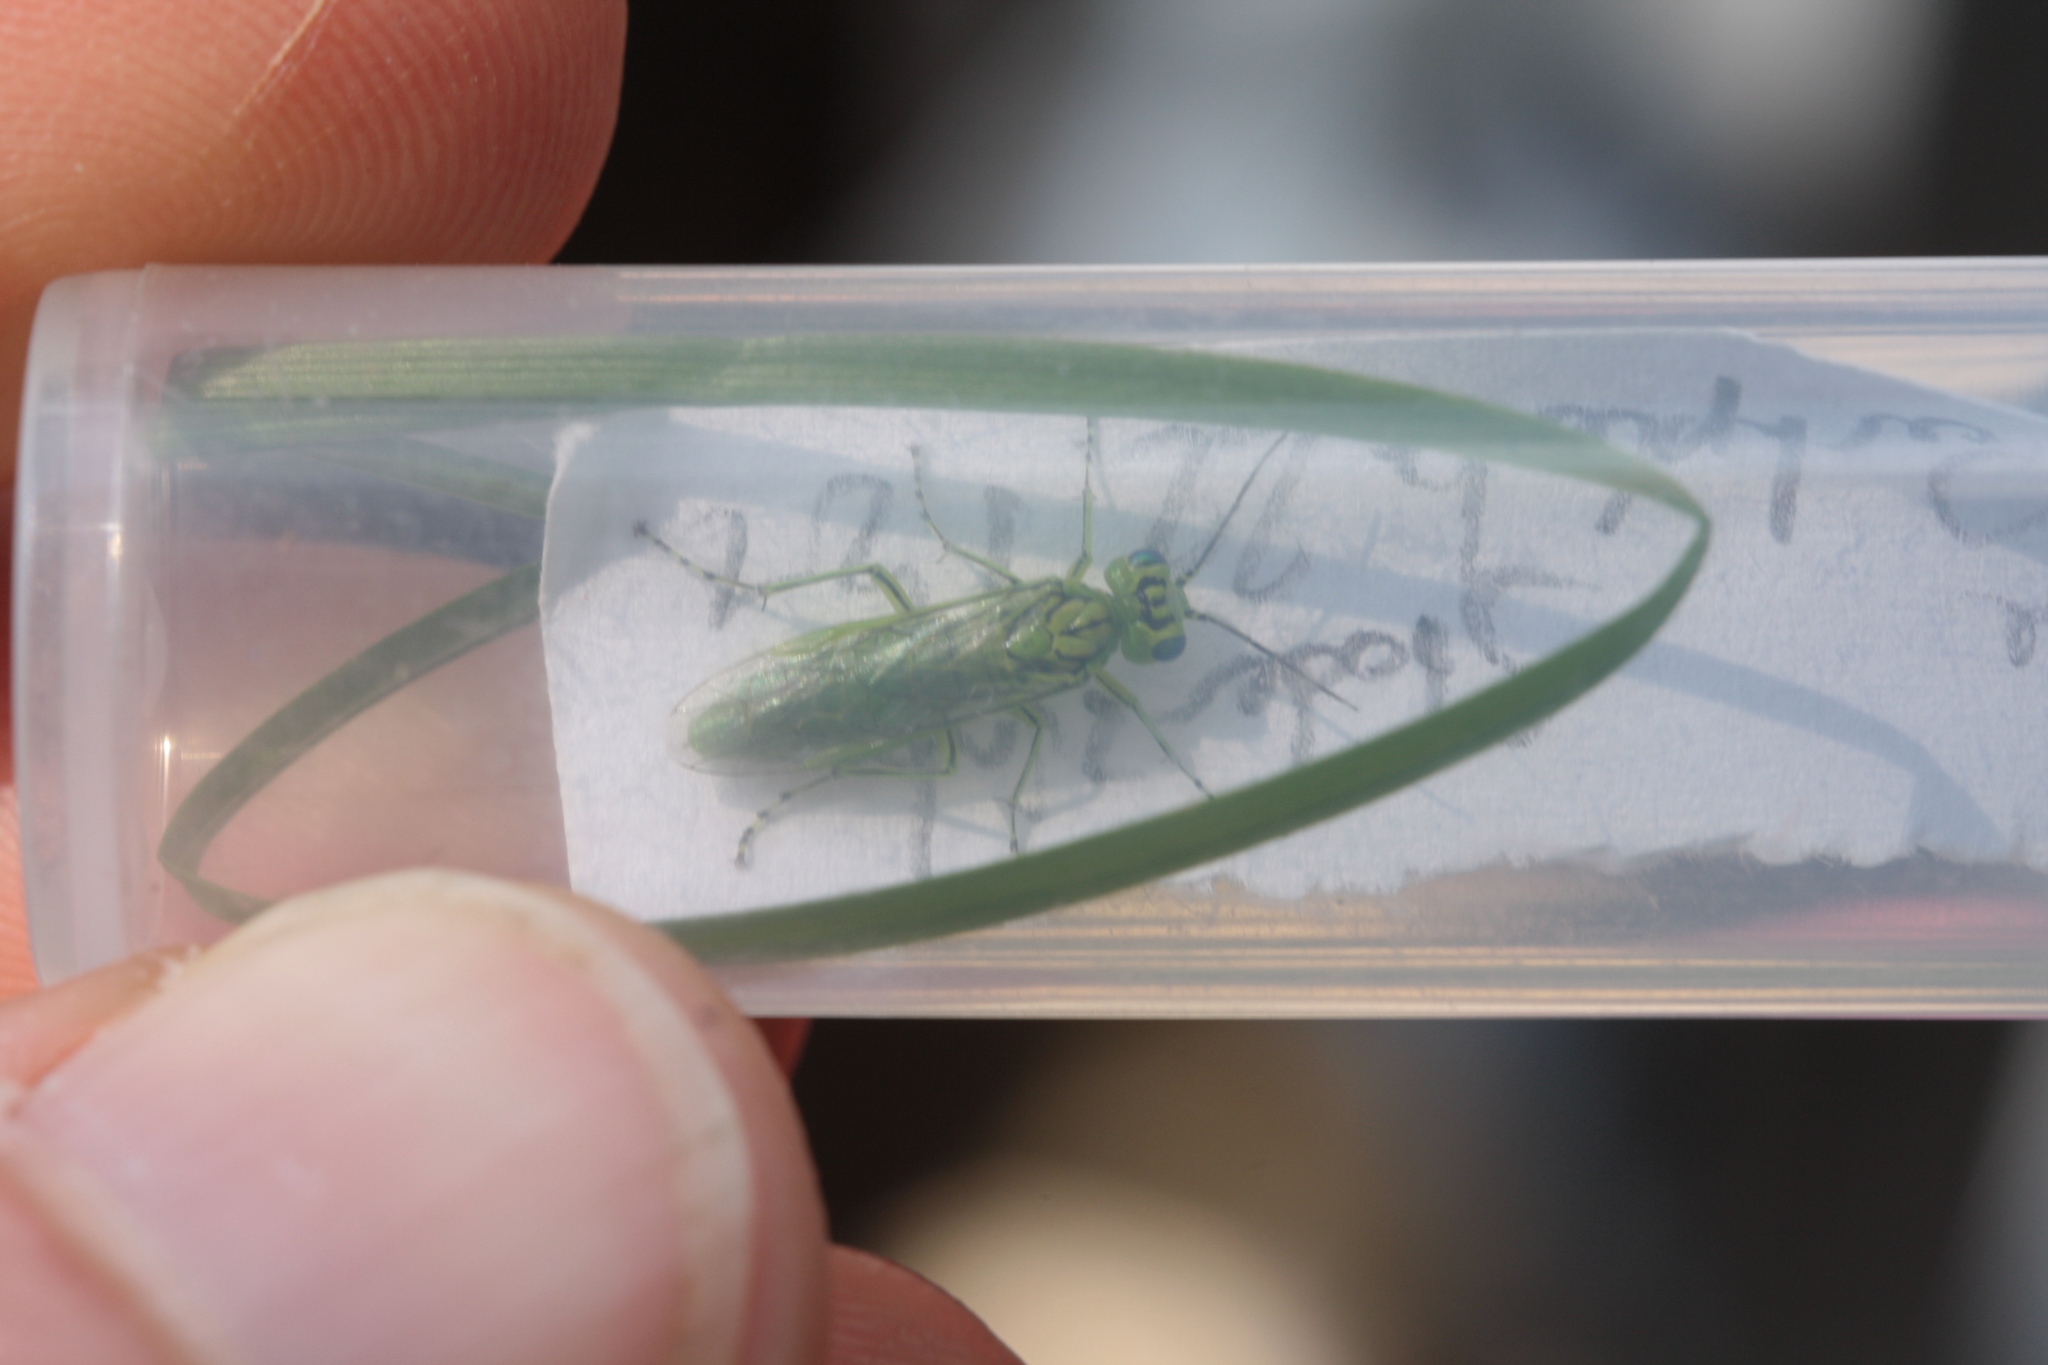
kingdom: Animalia
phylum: Arthropoda
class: Insecta
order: Hymenoptera
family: Tenthredinidae
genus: Rhogogaster
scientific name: Rhogogaster punctulata
